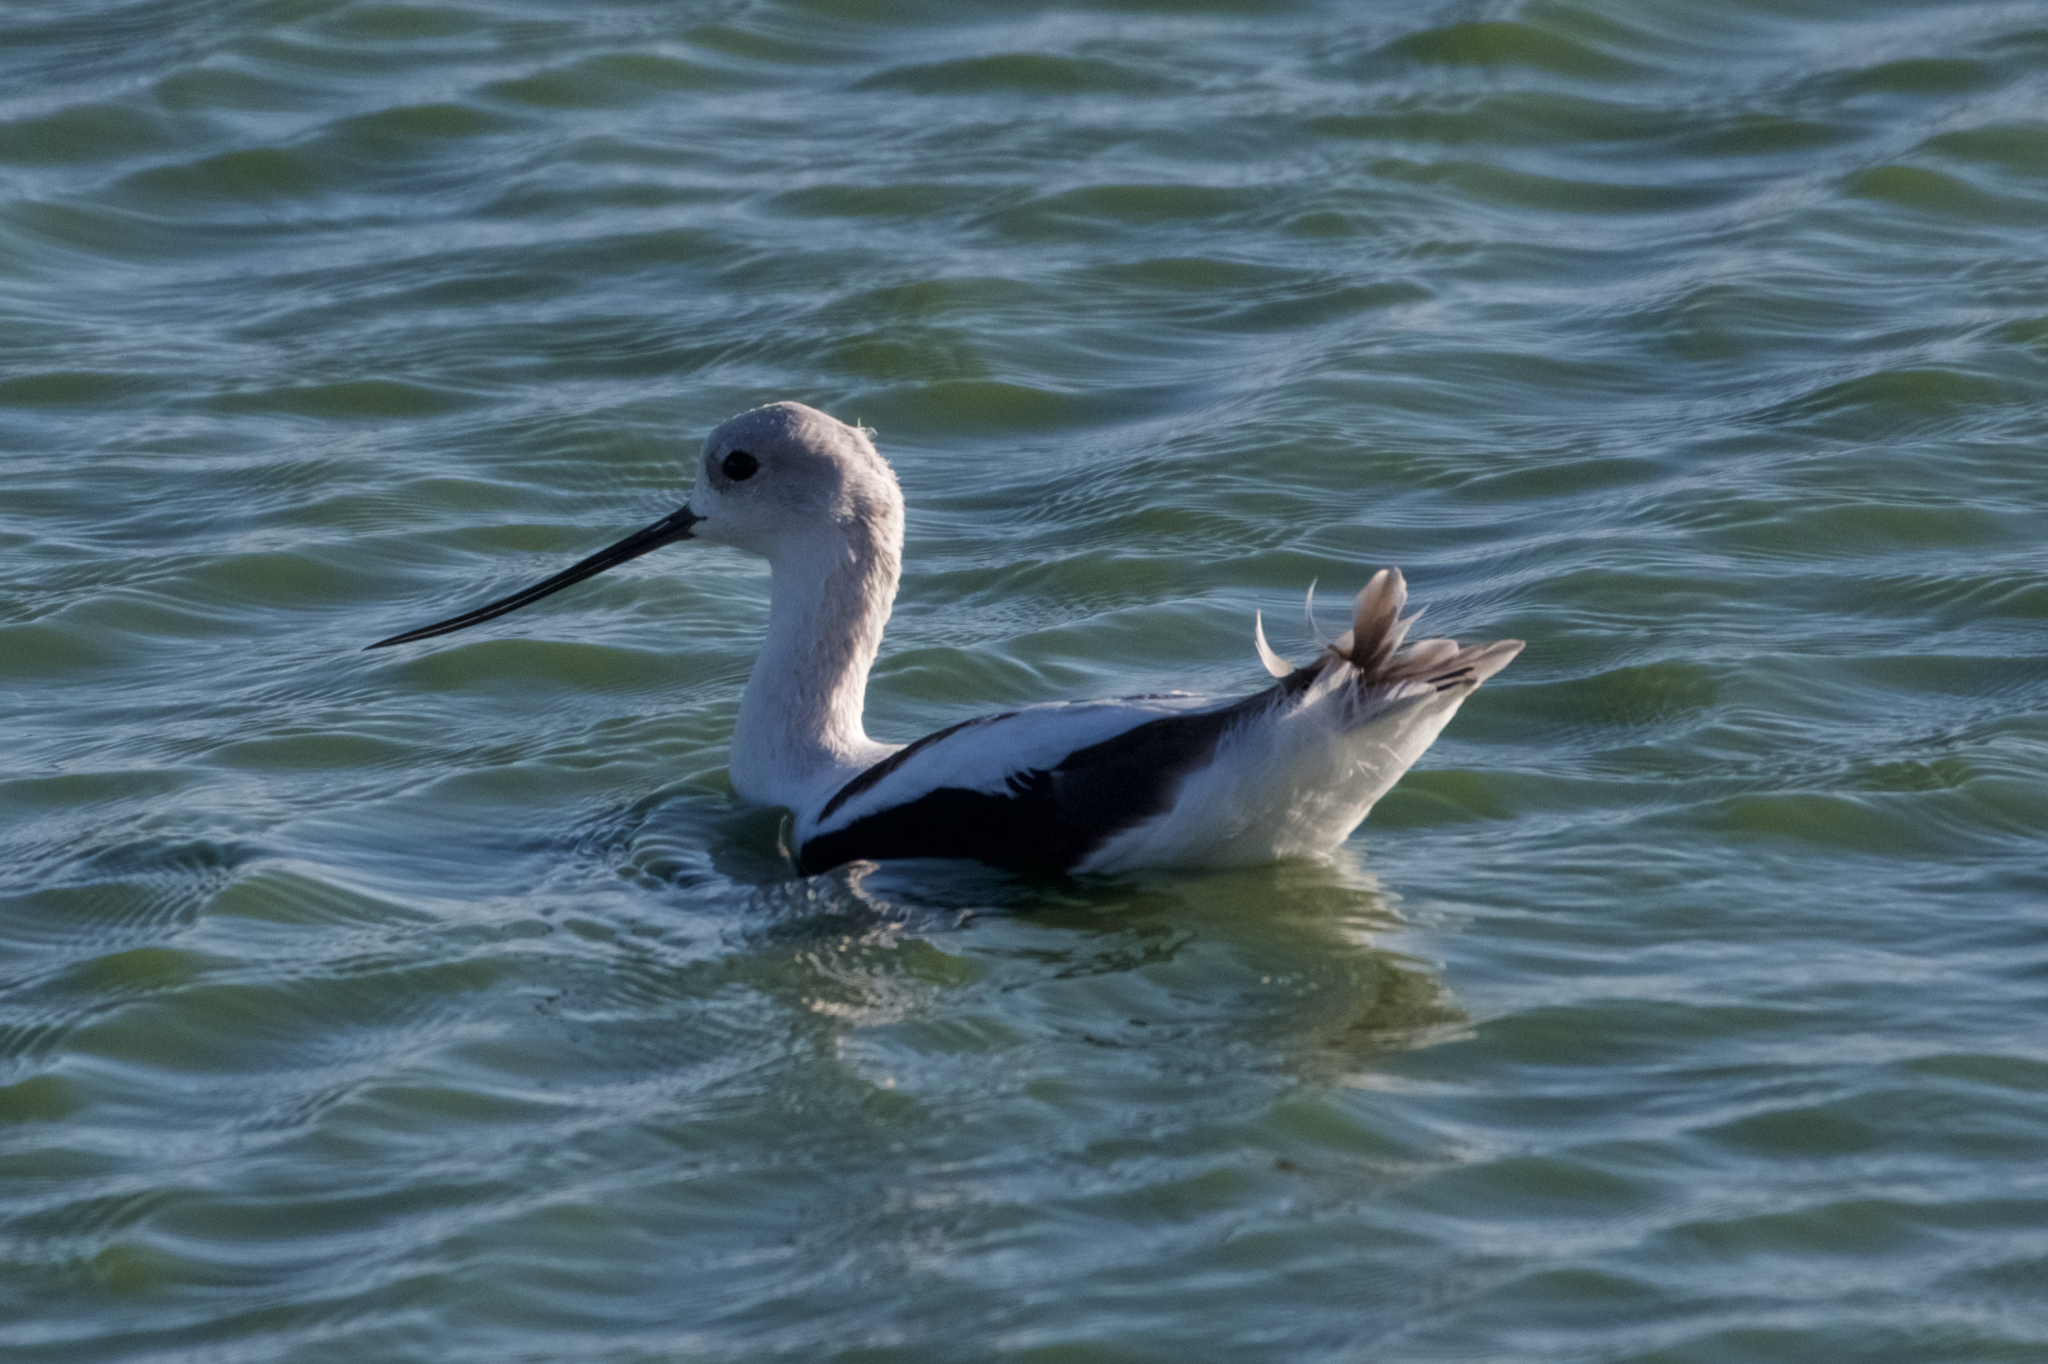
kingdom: Animalia
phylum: Chordata
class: Aves
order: Charadriiformes
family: Recurvirostridae
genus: Recurvirostra
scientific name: Recurvirostra americana
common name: American avocet
